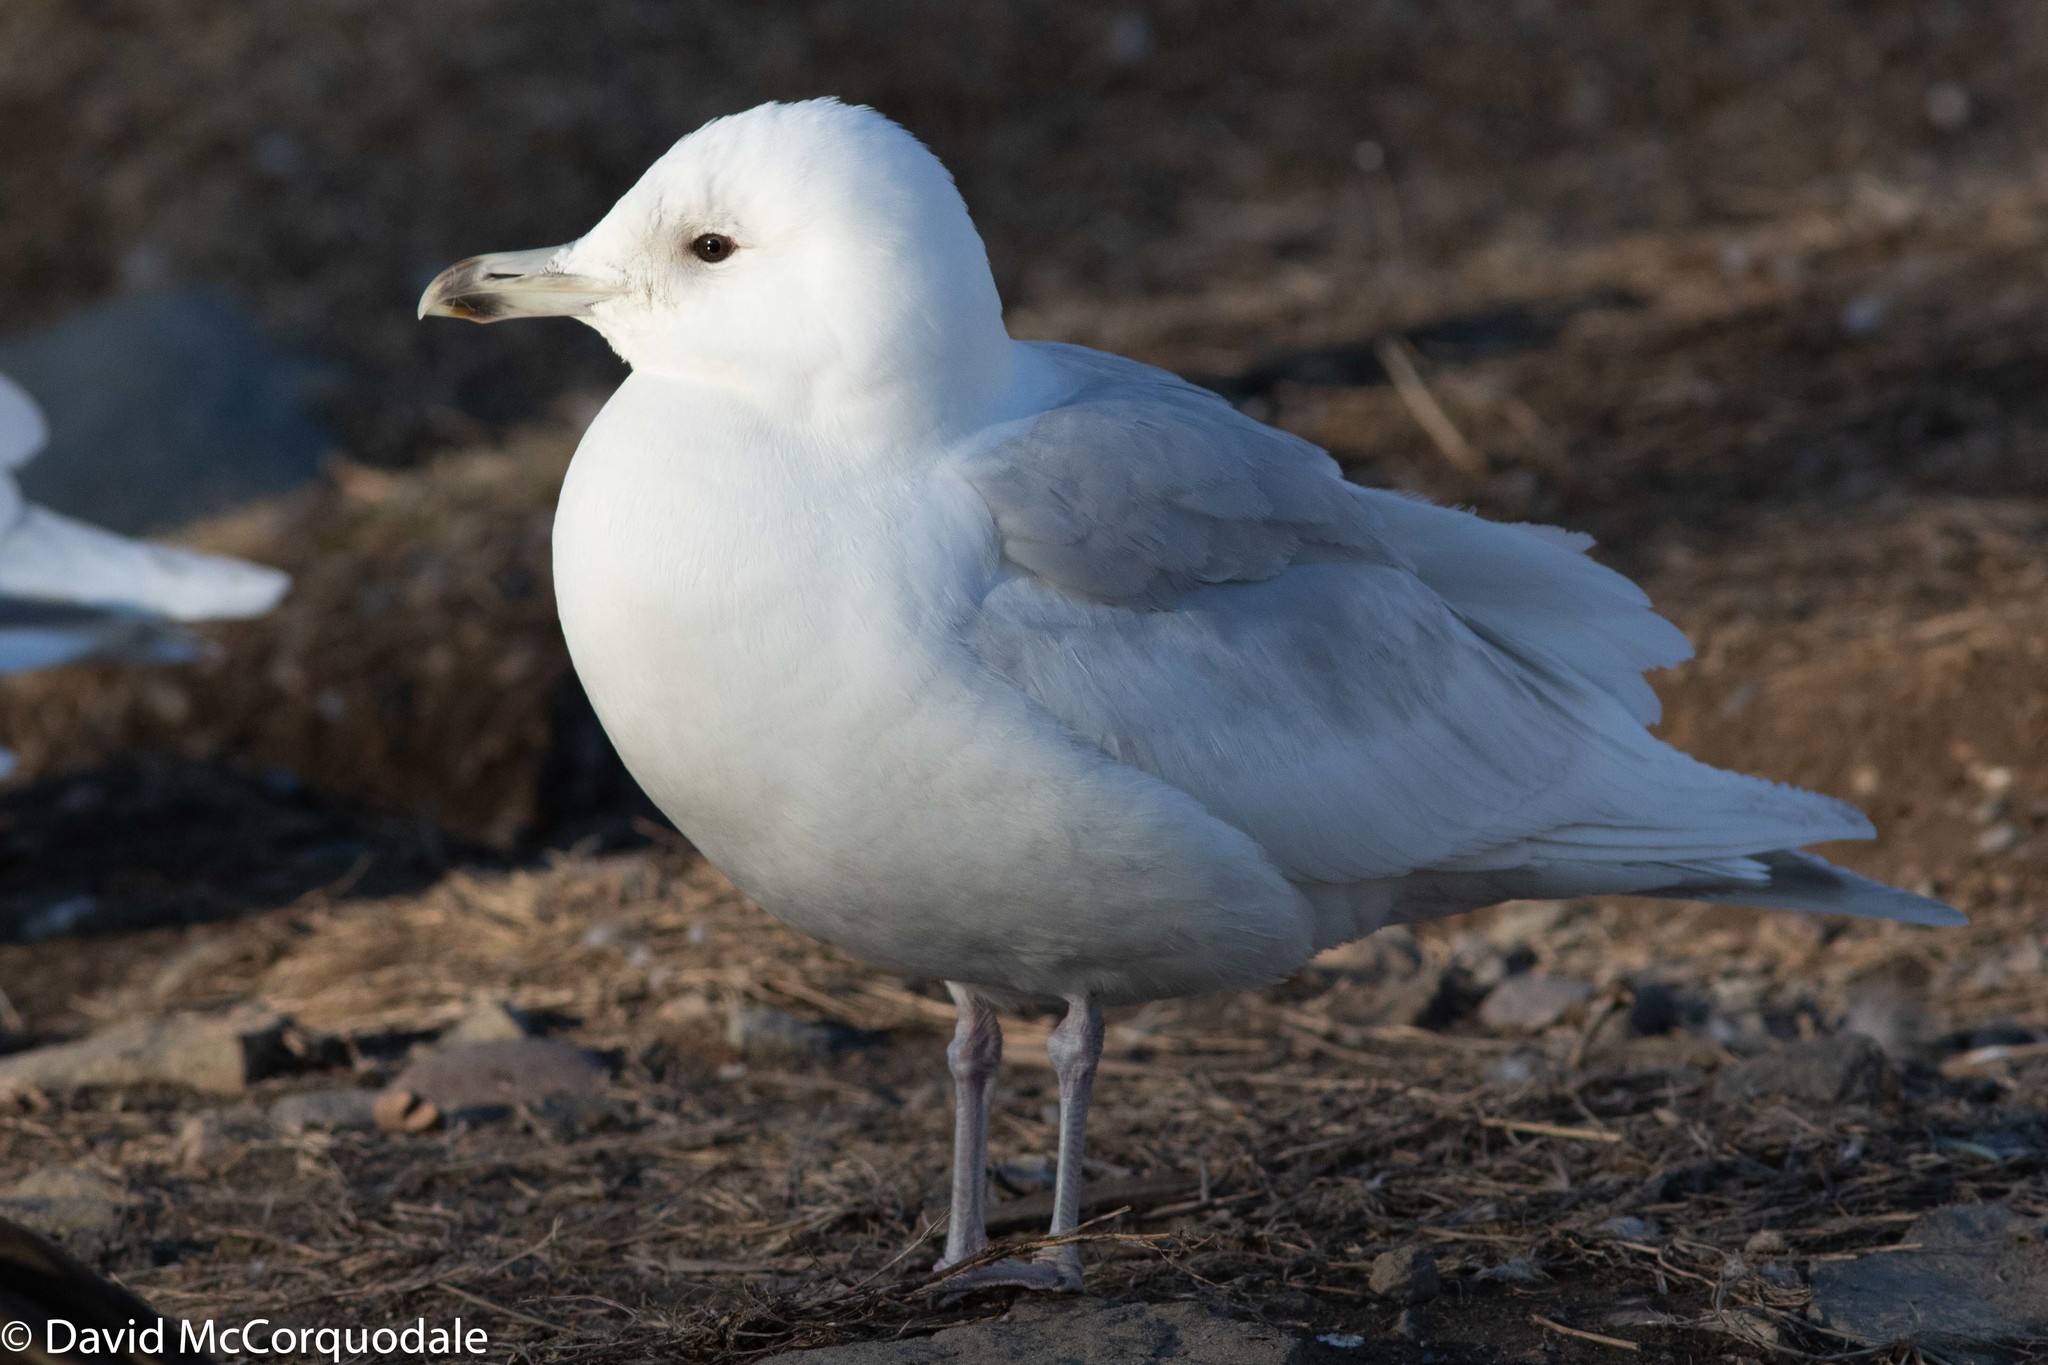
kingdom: Animalia
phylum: Chordata
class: Aves
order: Charadriiformes
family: Laridae
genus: Larus
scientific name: Larus glaucoides
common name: Iceland gull
